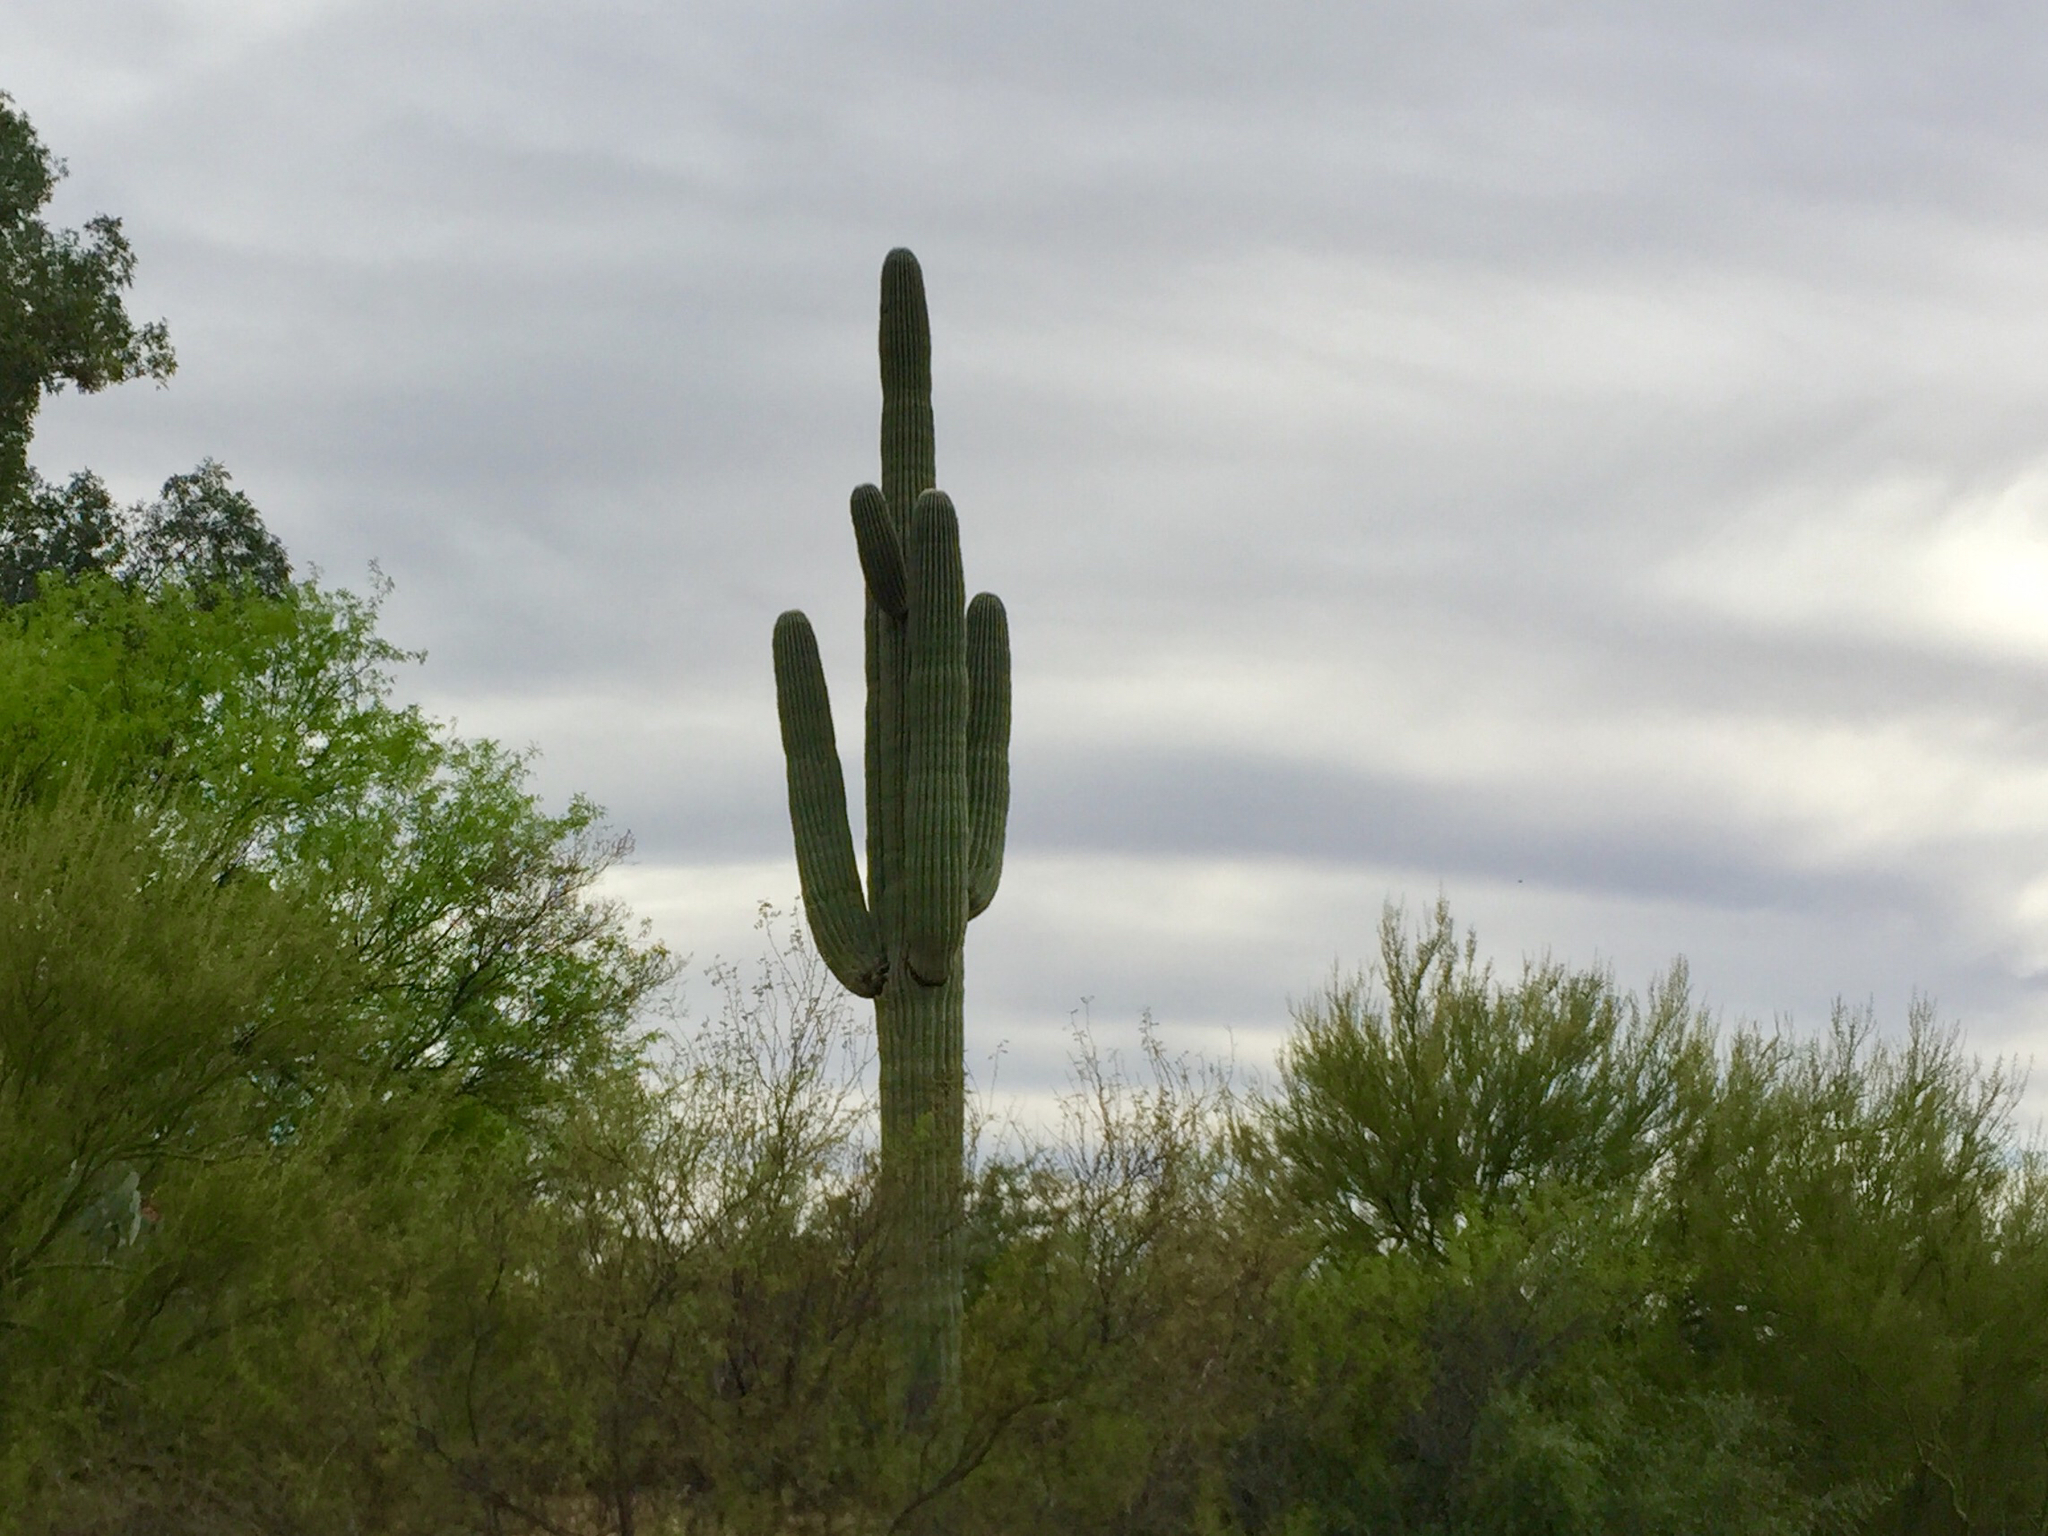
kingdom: Plantae
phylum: Tracheophyta
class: Magnoliopsida
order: Caryophyllales
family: Cactaceae
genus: Carnegiea
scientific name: Carnegiea gigantea
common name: Saguaro
